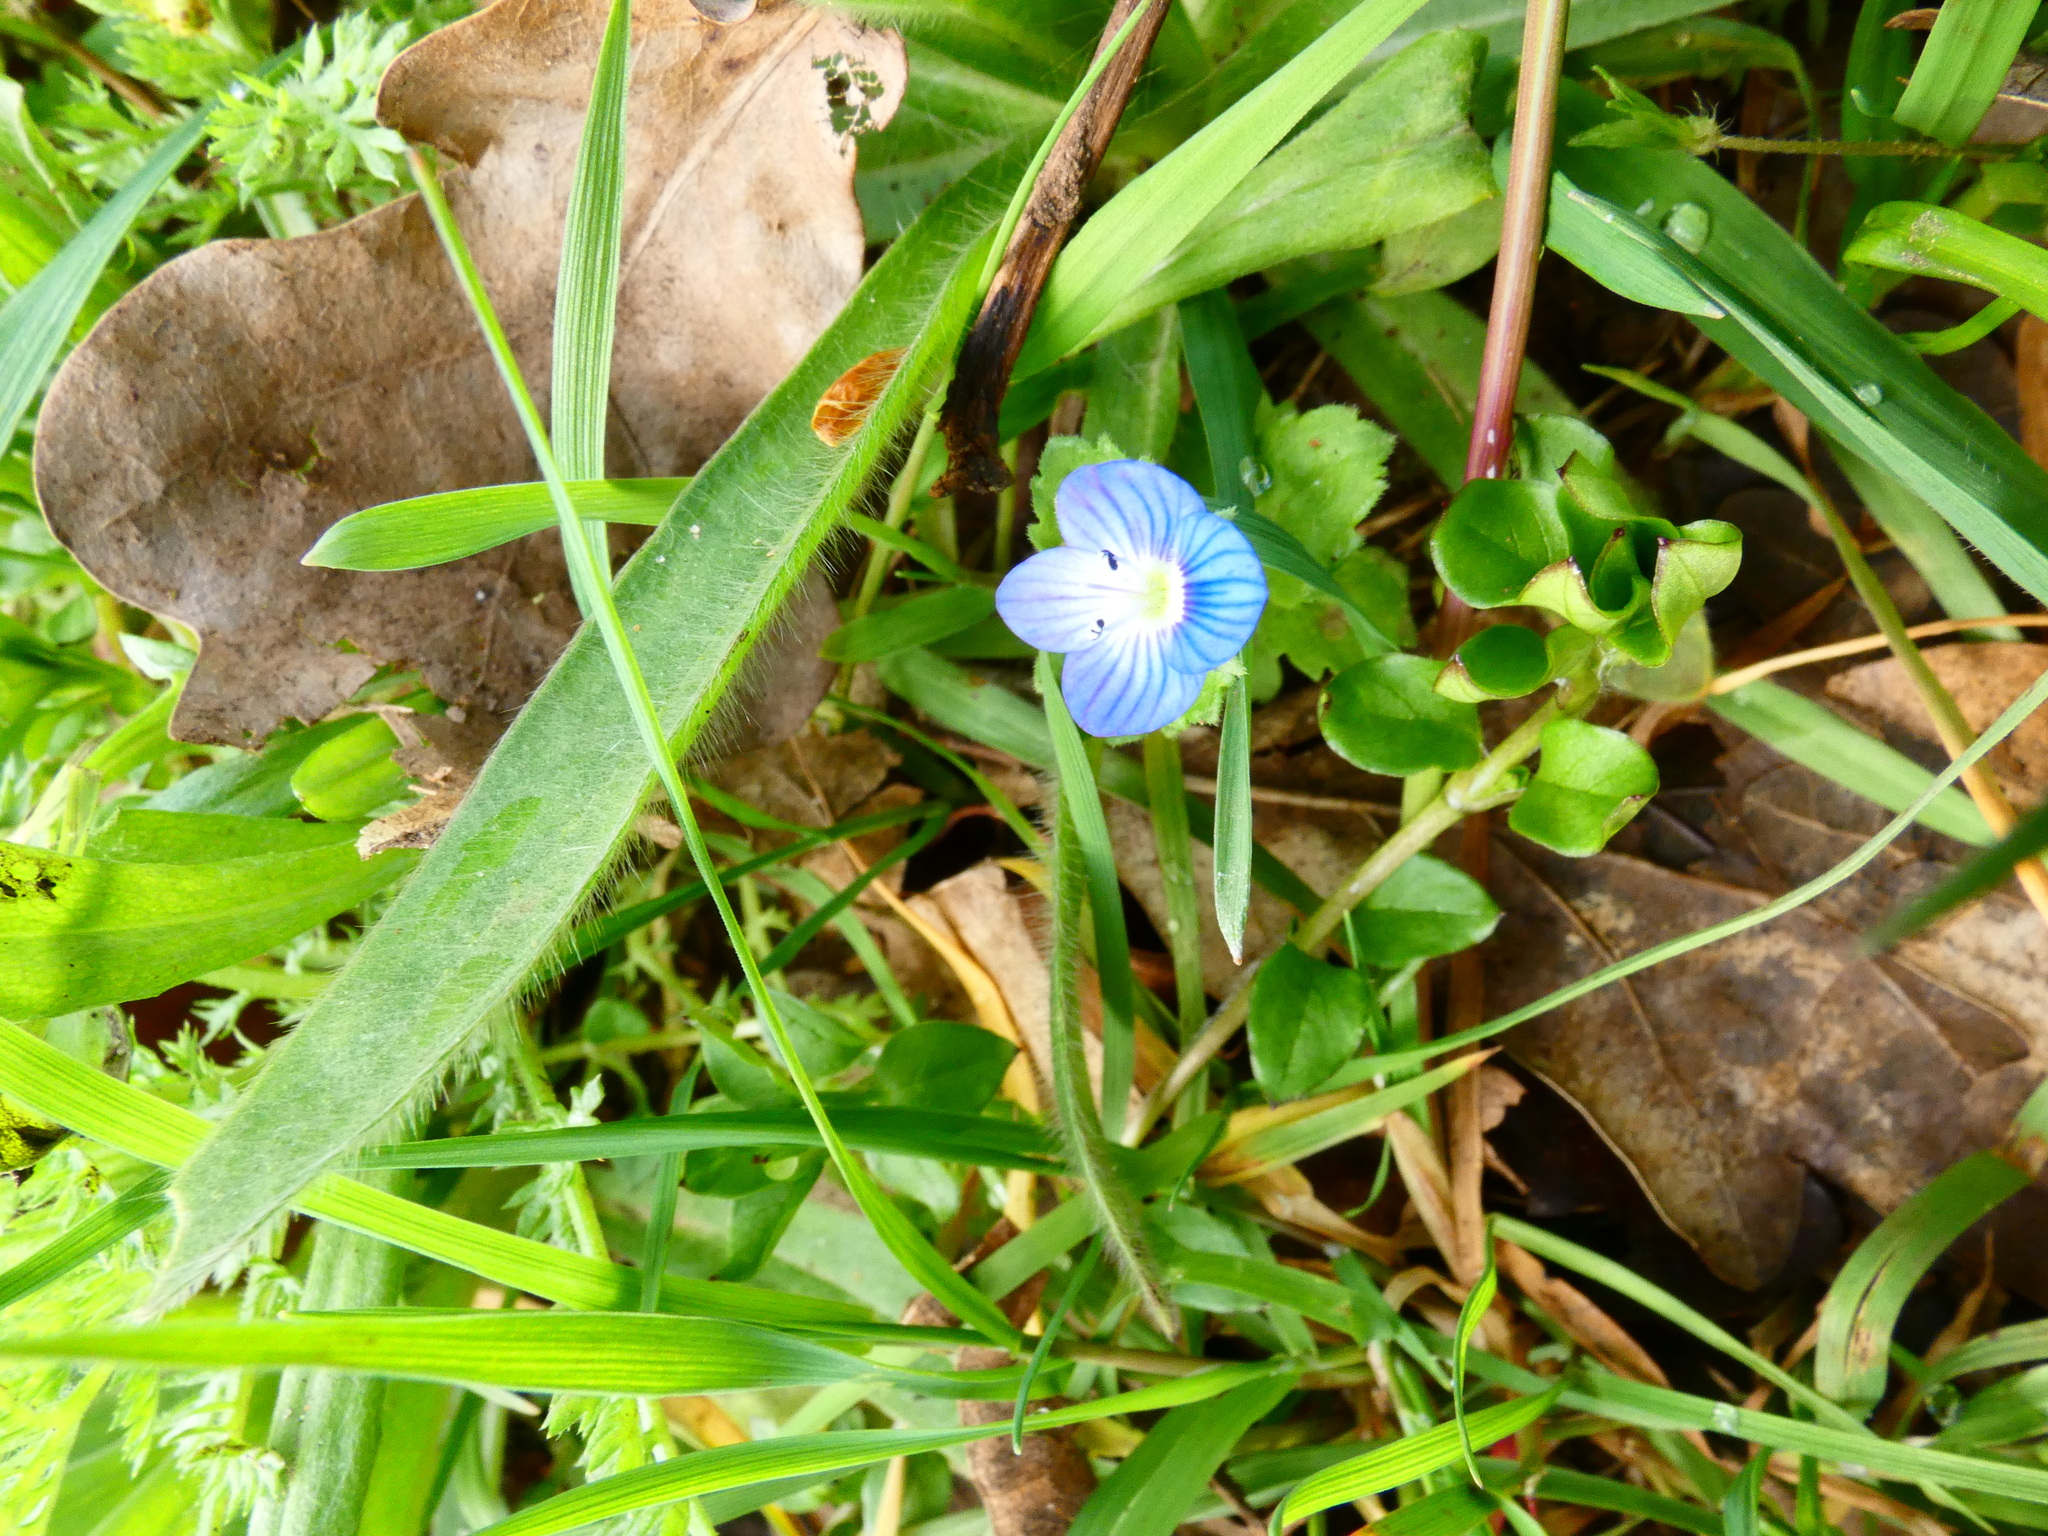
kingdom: Plantae
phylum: Tracheophyta
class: Magnoliopsida
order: Lamiales
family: Plantaginaceae
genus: Veronica
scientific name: Veronica persica
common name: Common field-speedwell
